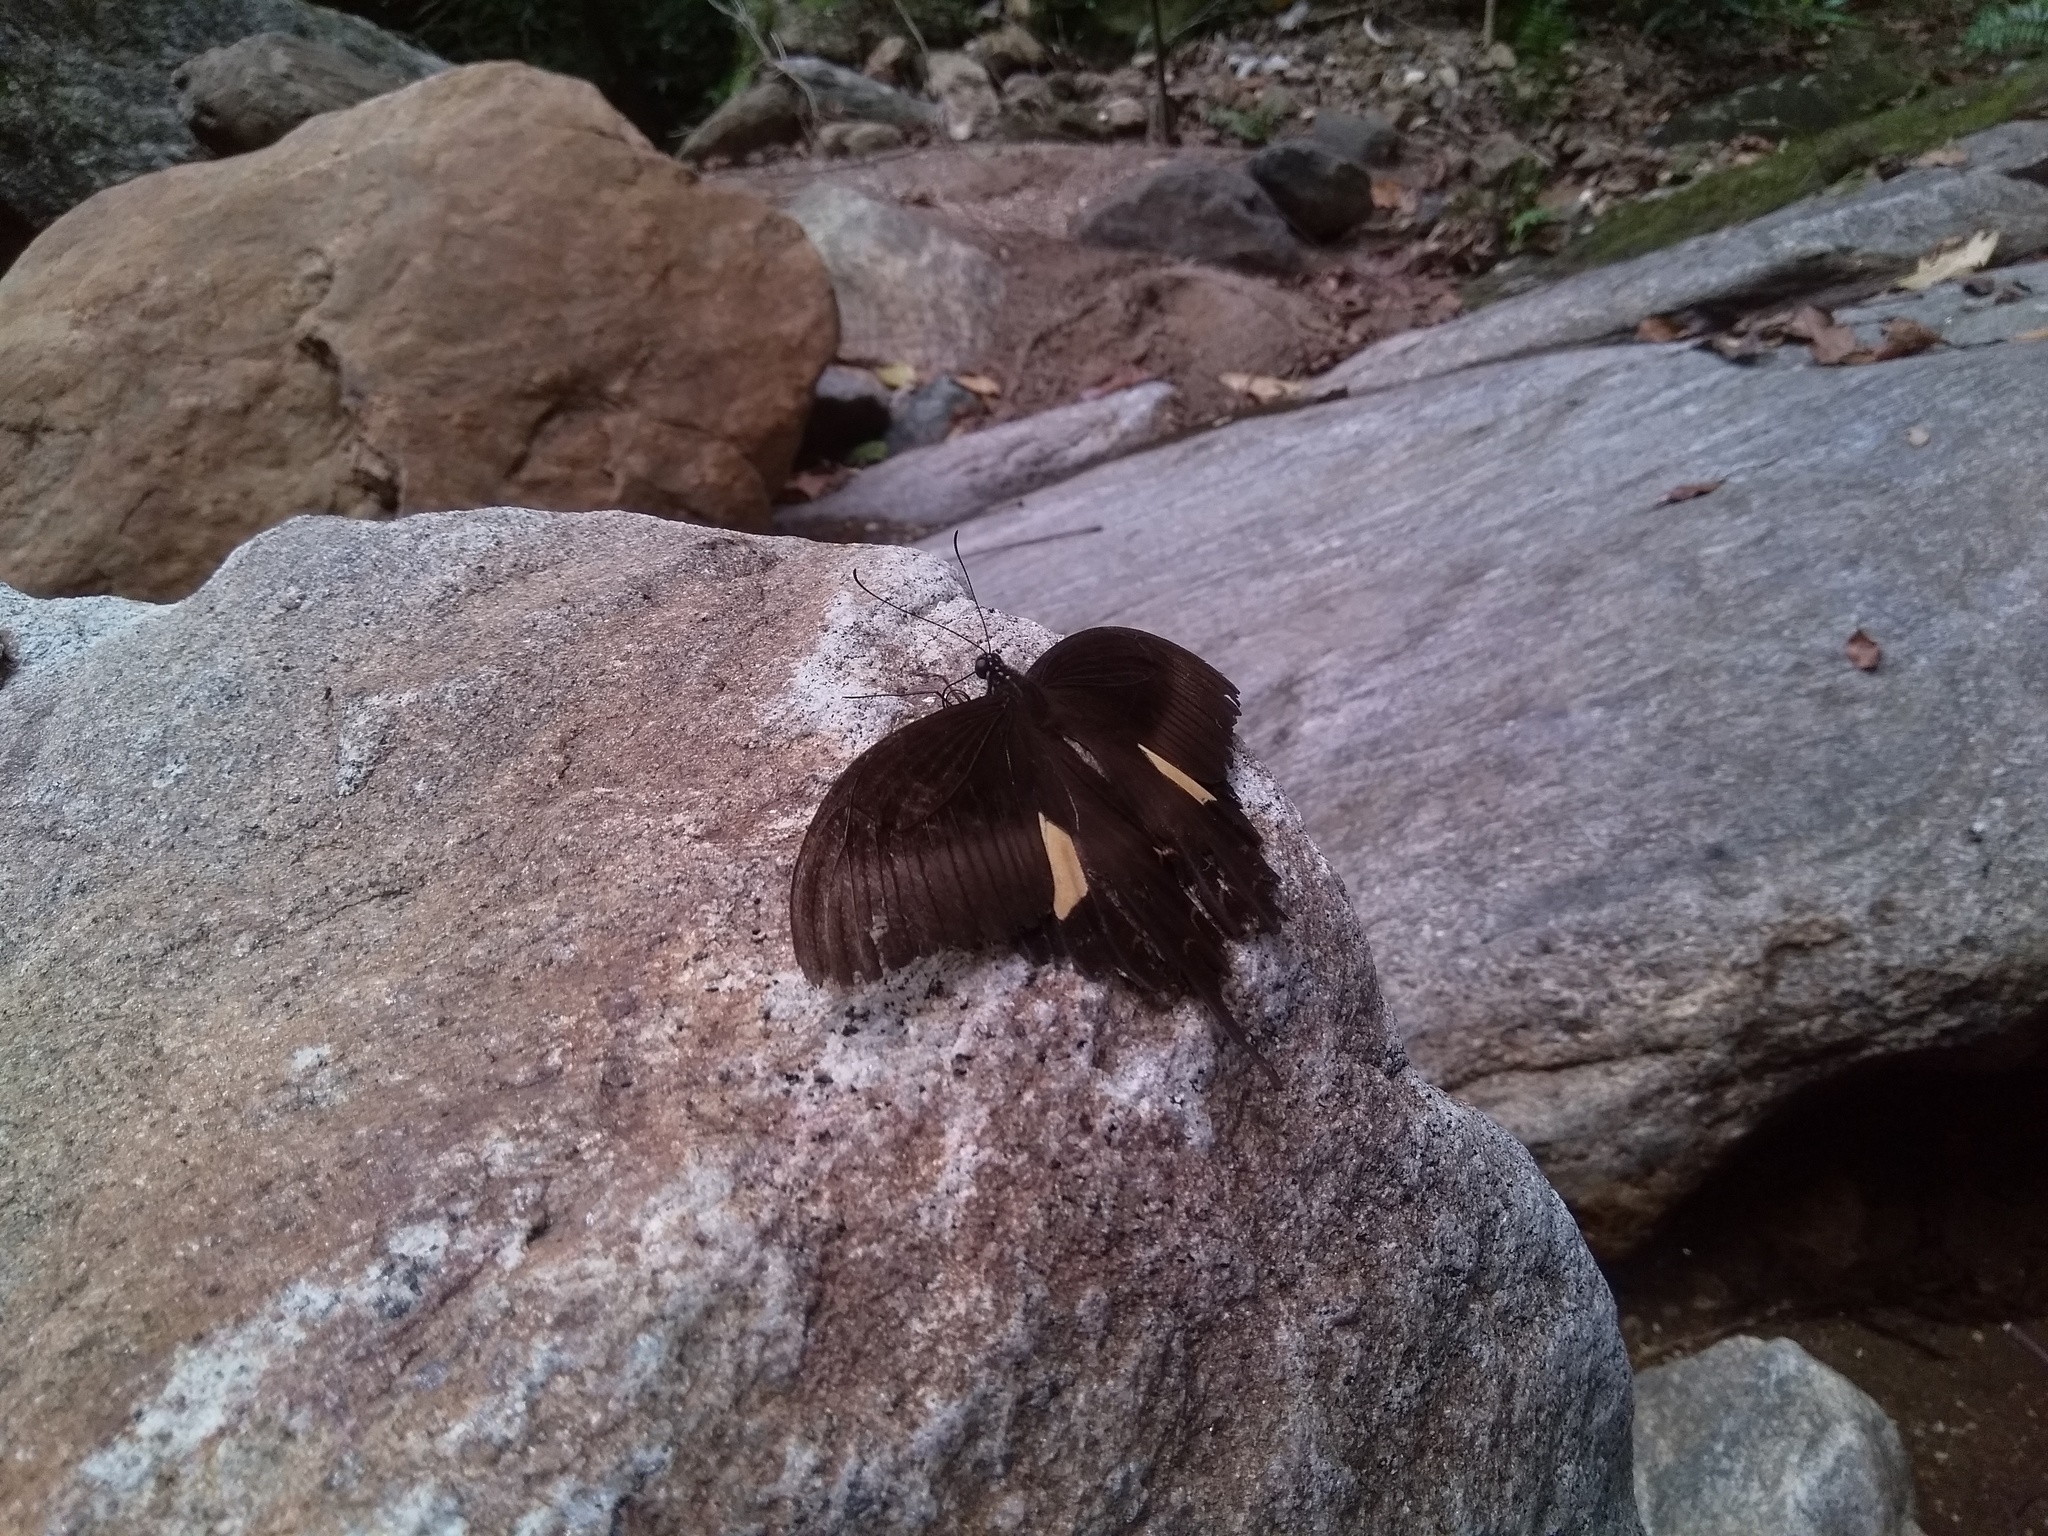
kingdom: Animalia
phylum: Arthropoda
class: Insecta
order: Lepidoptera
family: Papilionidae
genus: Papilio
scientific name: Papilio helenus
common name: Red helen
